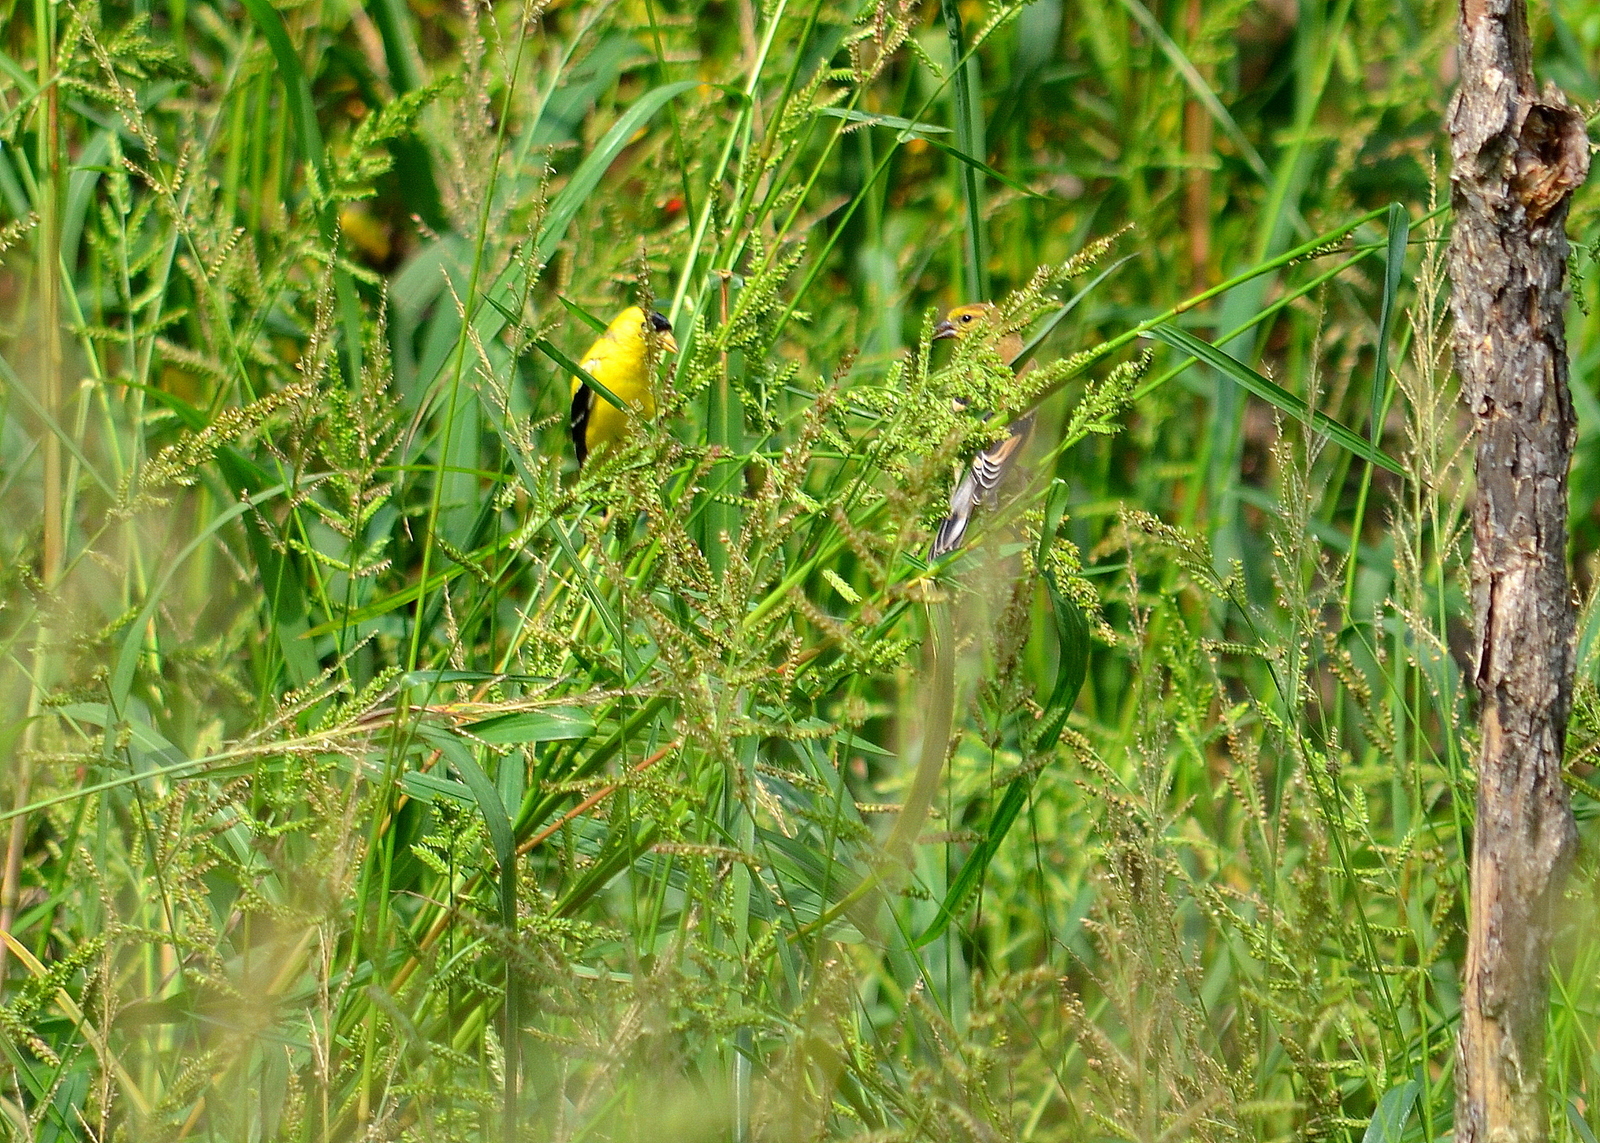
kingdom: Animalia
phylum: Chordata
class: Aves
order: Passeriformes
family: Fringillidae
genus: Spinus
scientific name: Spinus tristis
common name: American goldfinch
